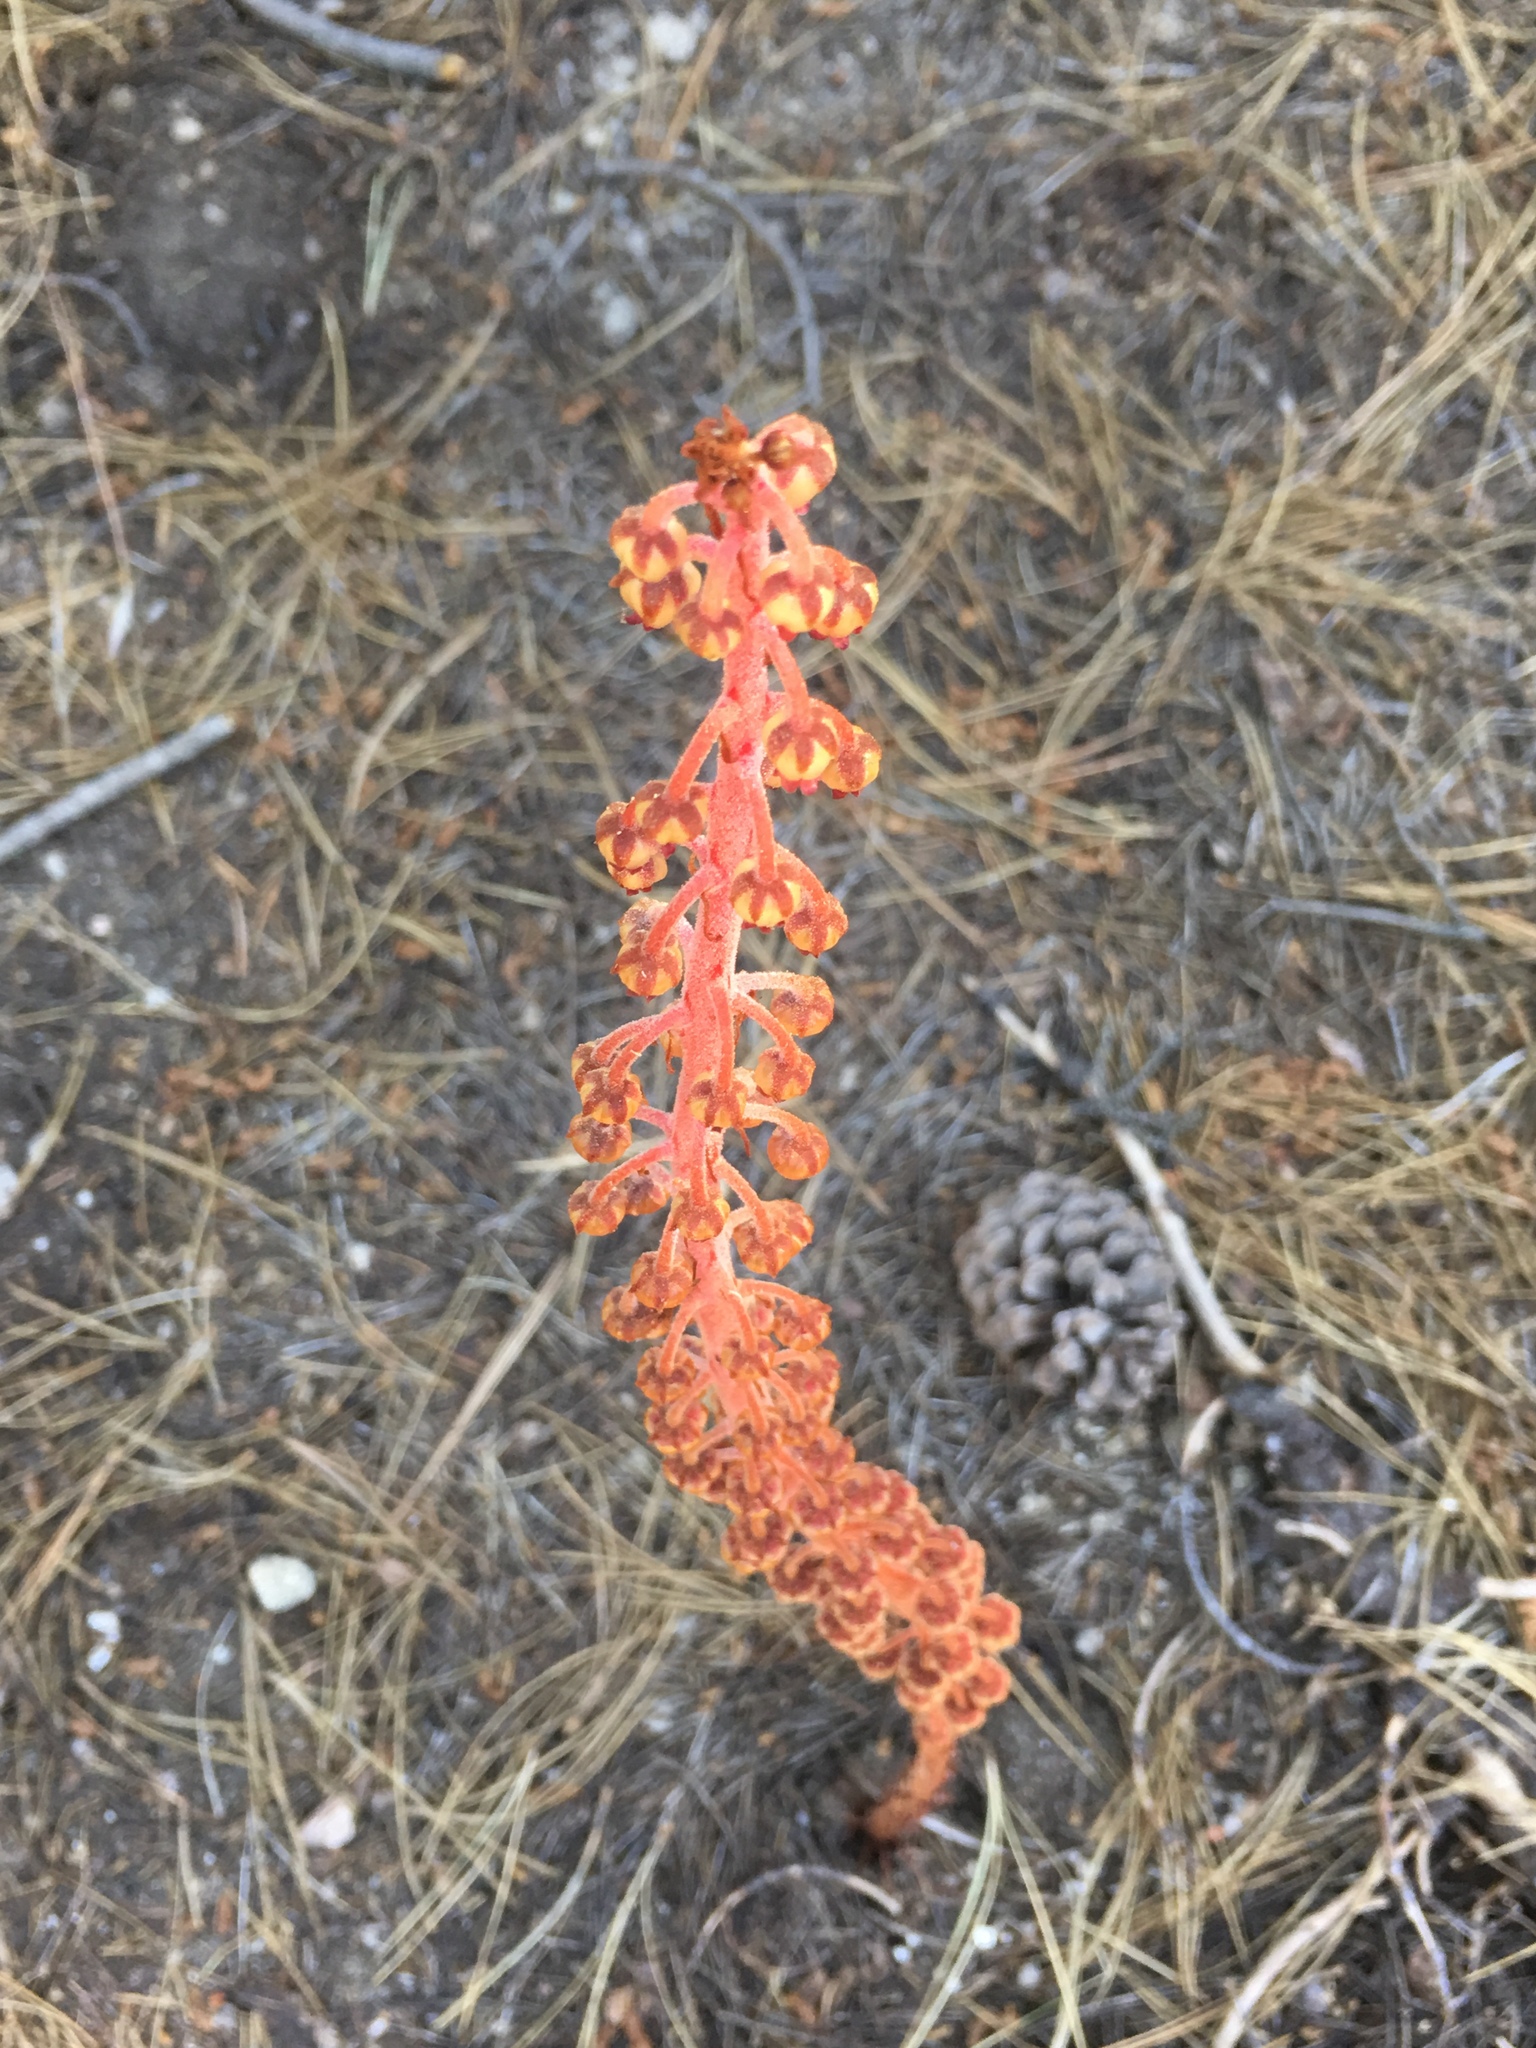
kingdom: Plantae
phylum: Tracheophyta
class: Magnoliopsida
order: Ericales
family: Ericaceae
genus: Pterospora
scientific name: Pterospora andromedea
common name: Giant bird's-nest
